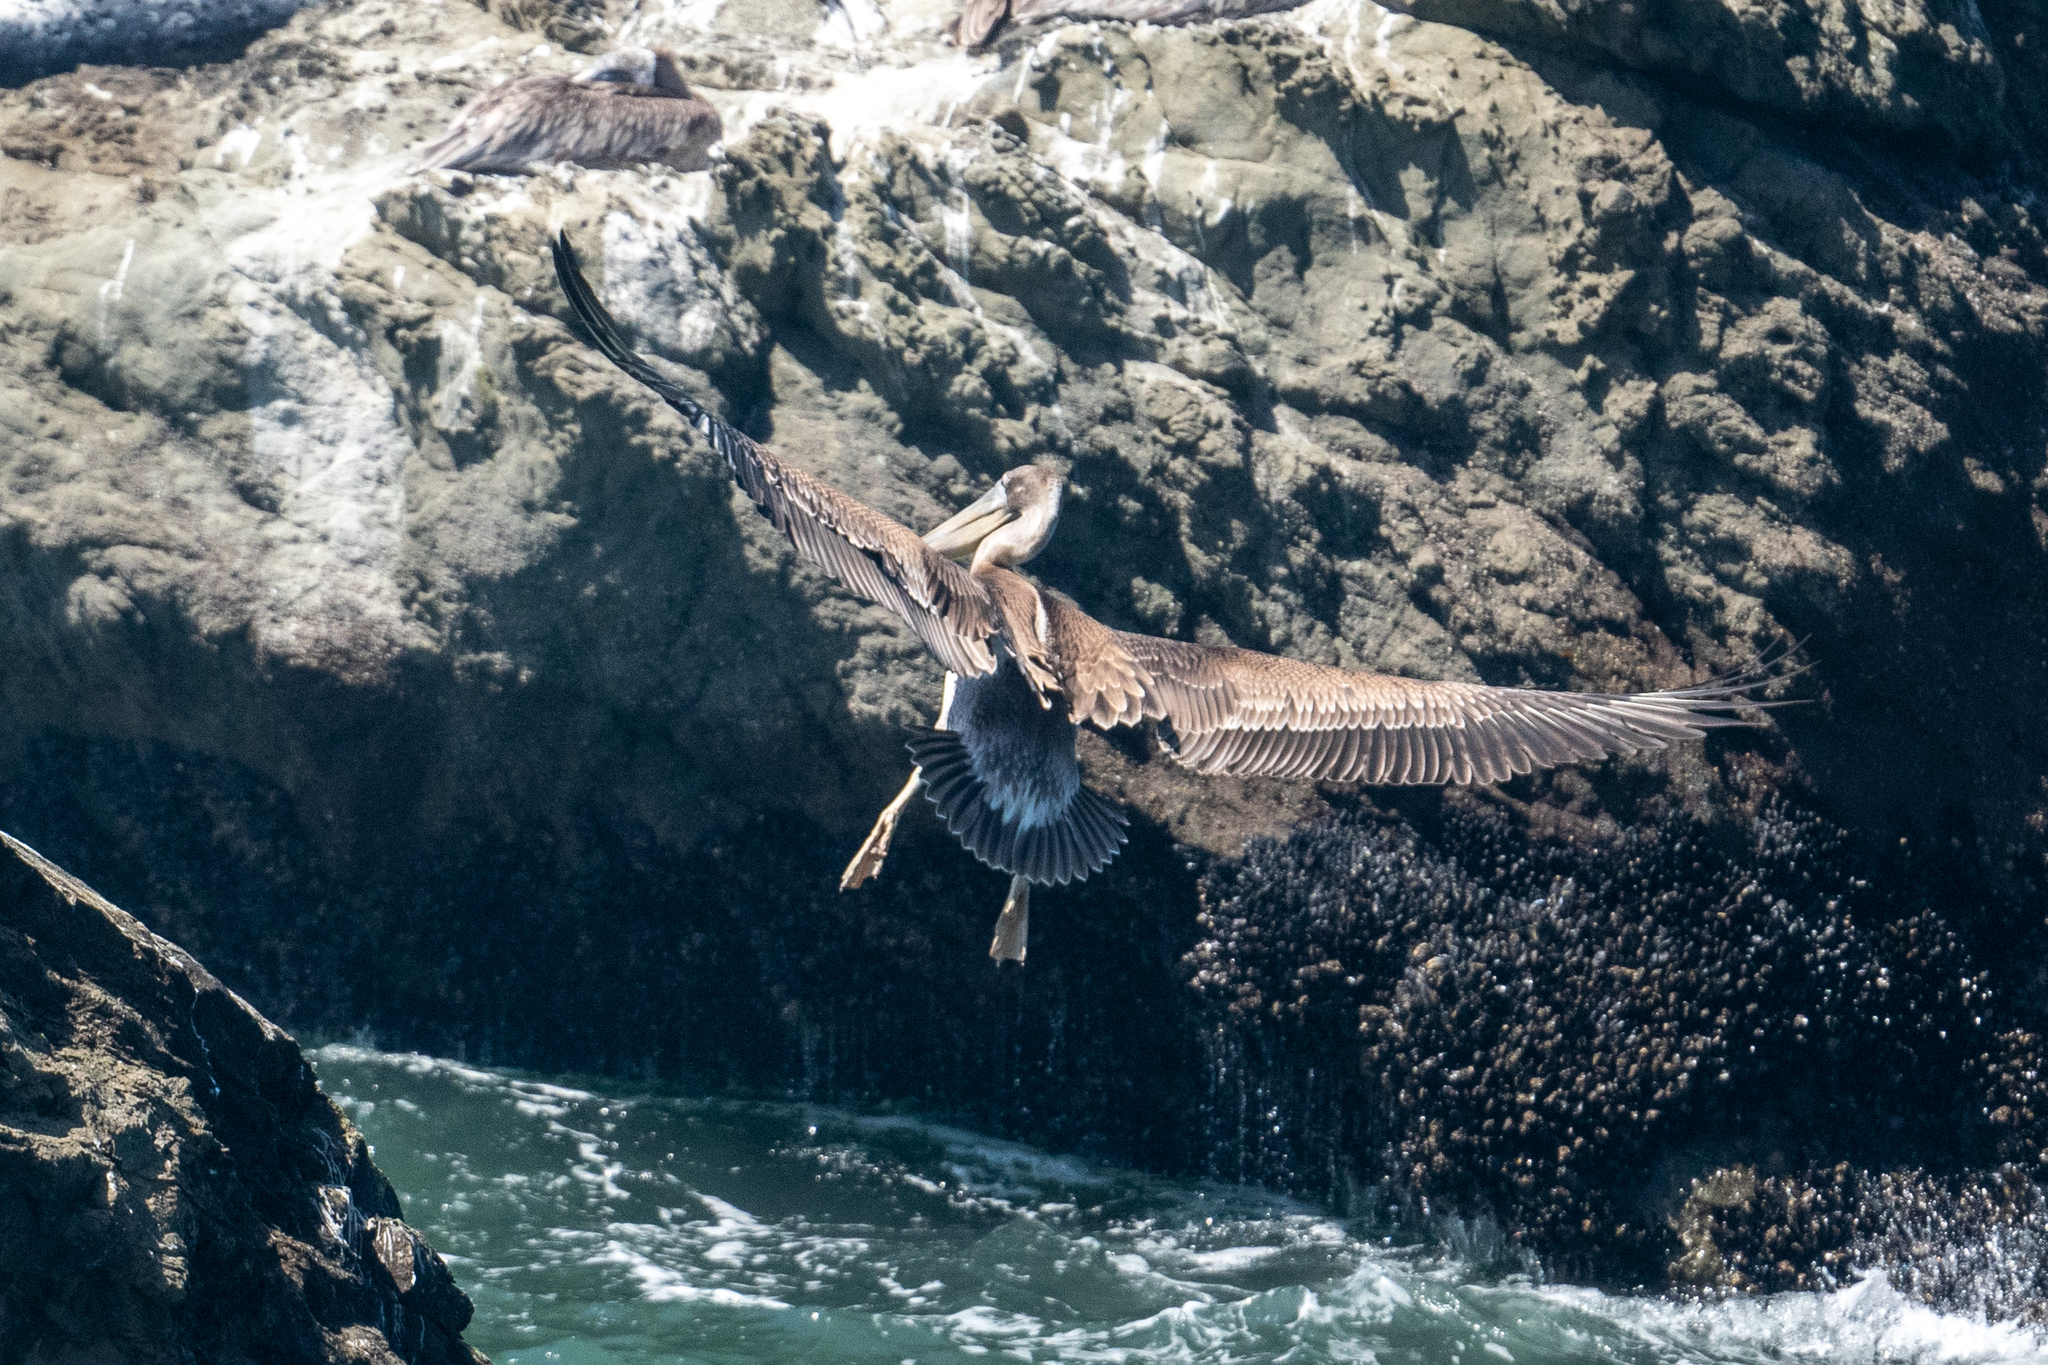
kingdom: Animalia
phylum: Chordata
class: Aves
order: Pelecaniformes
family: Pelecanidae
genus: Pelecanus
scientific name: Pelecanus occidentalis
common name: Brown pelican
